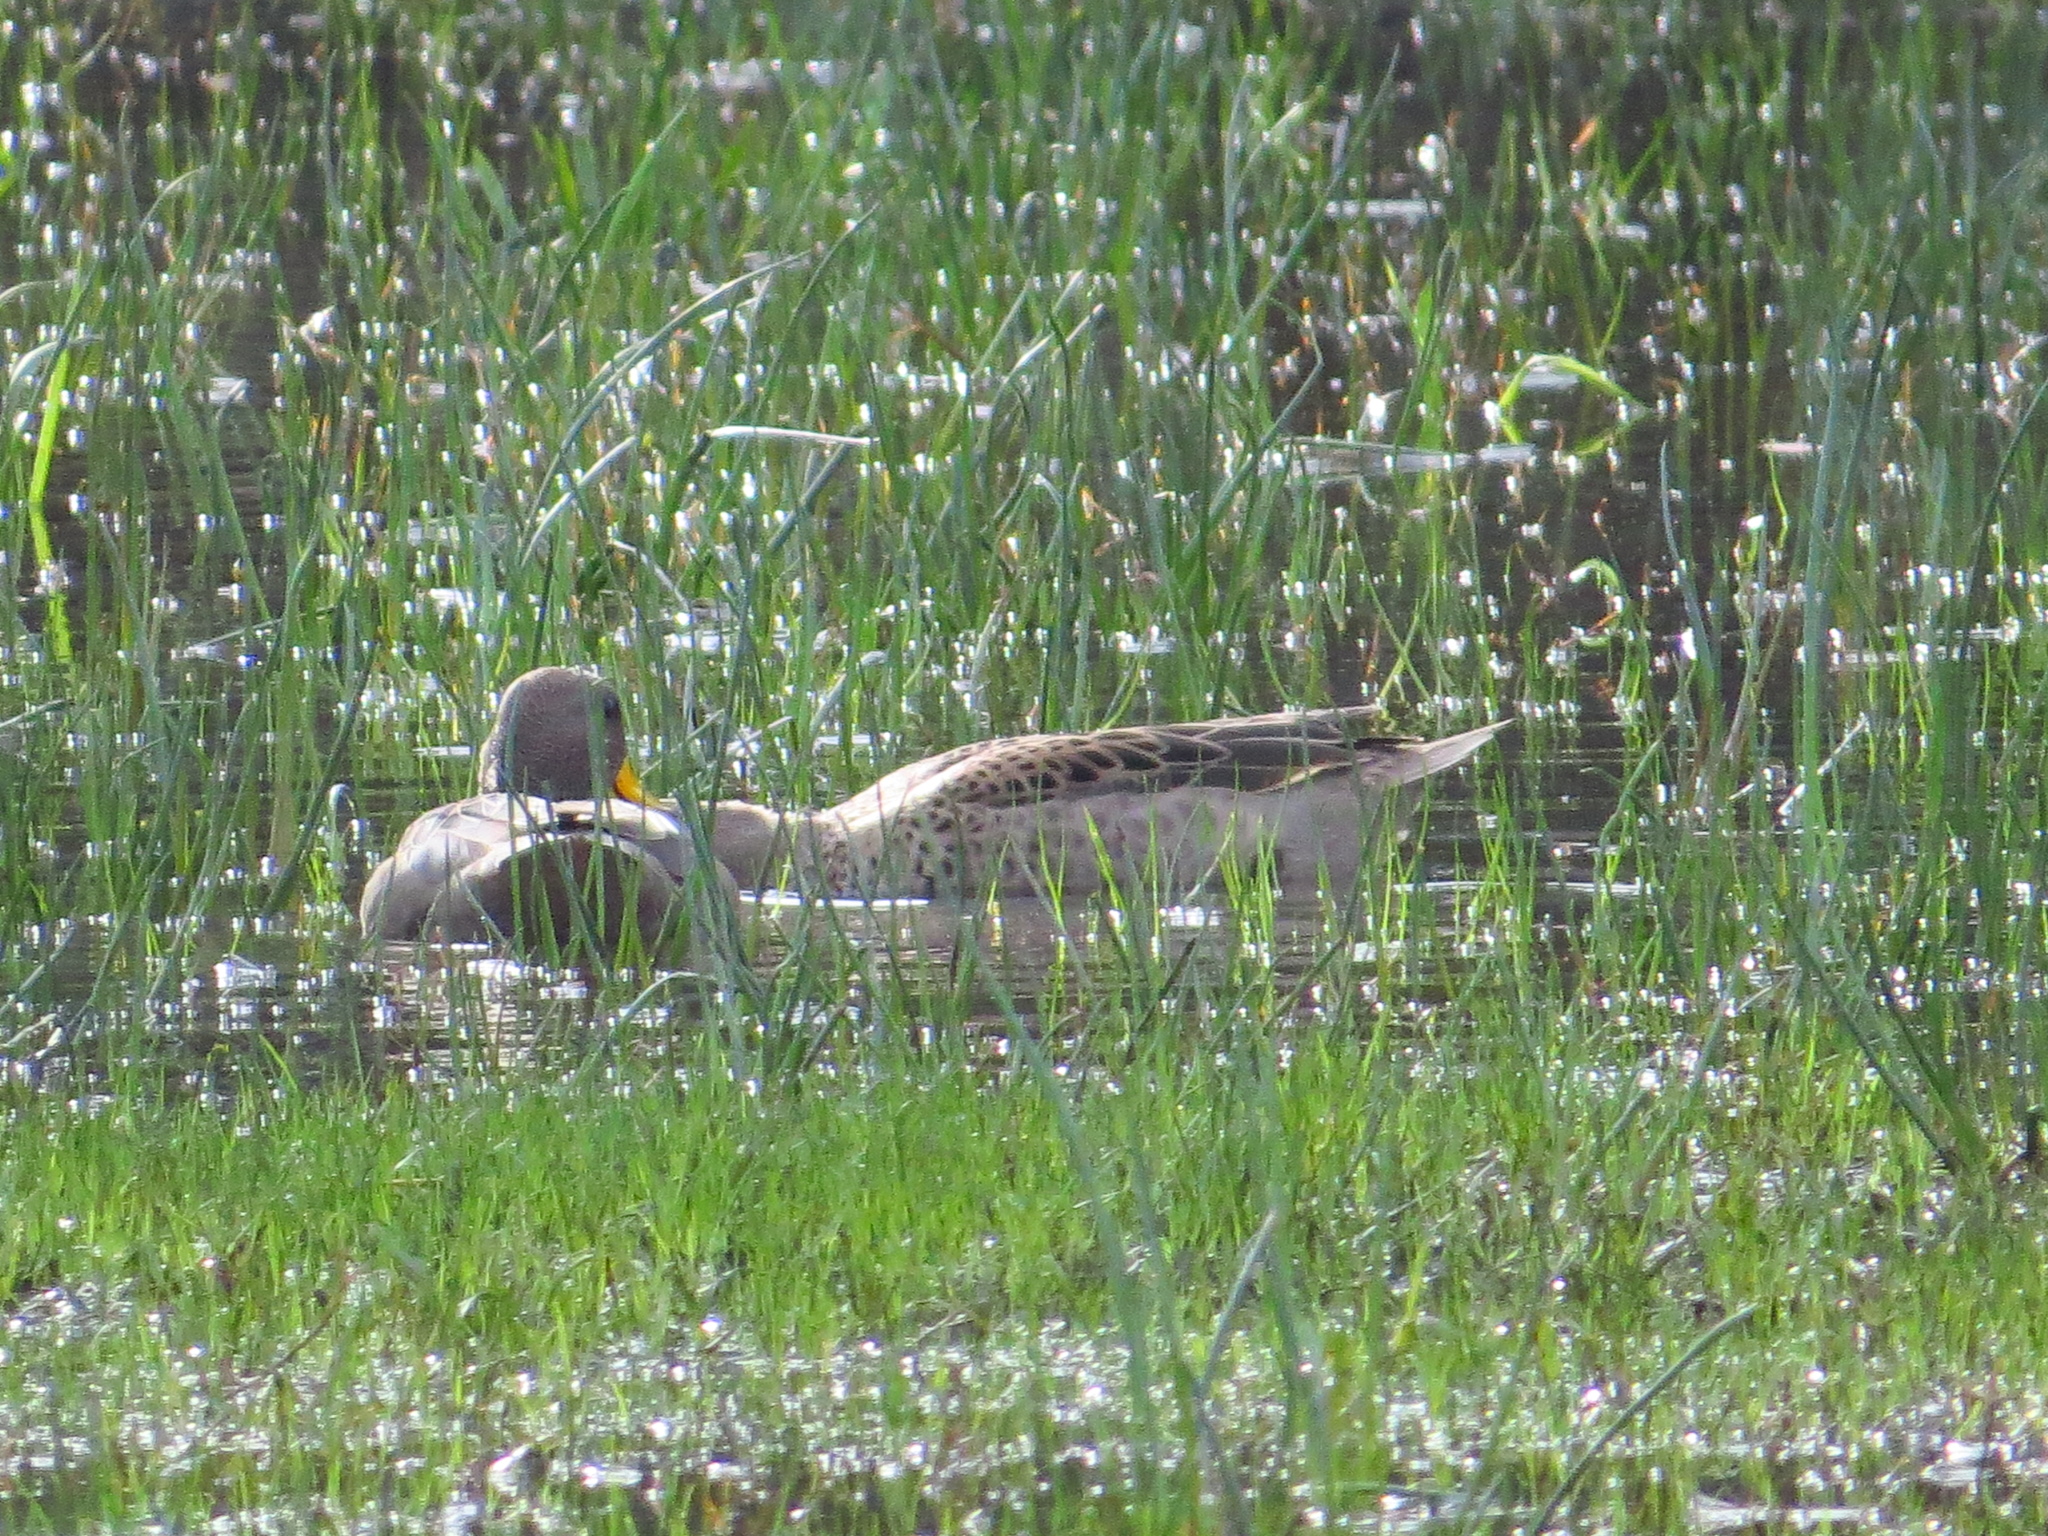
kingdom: Animalia
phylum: Chordata
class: Aves
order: Anseriformes
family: Anatidae
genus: Anas
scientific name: Anas flavirostris
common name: Yellow-billed teal
